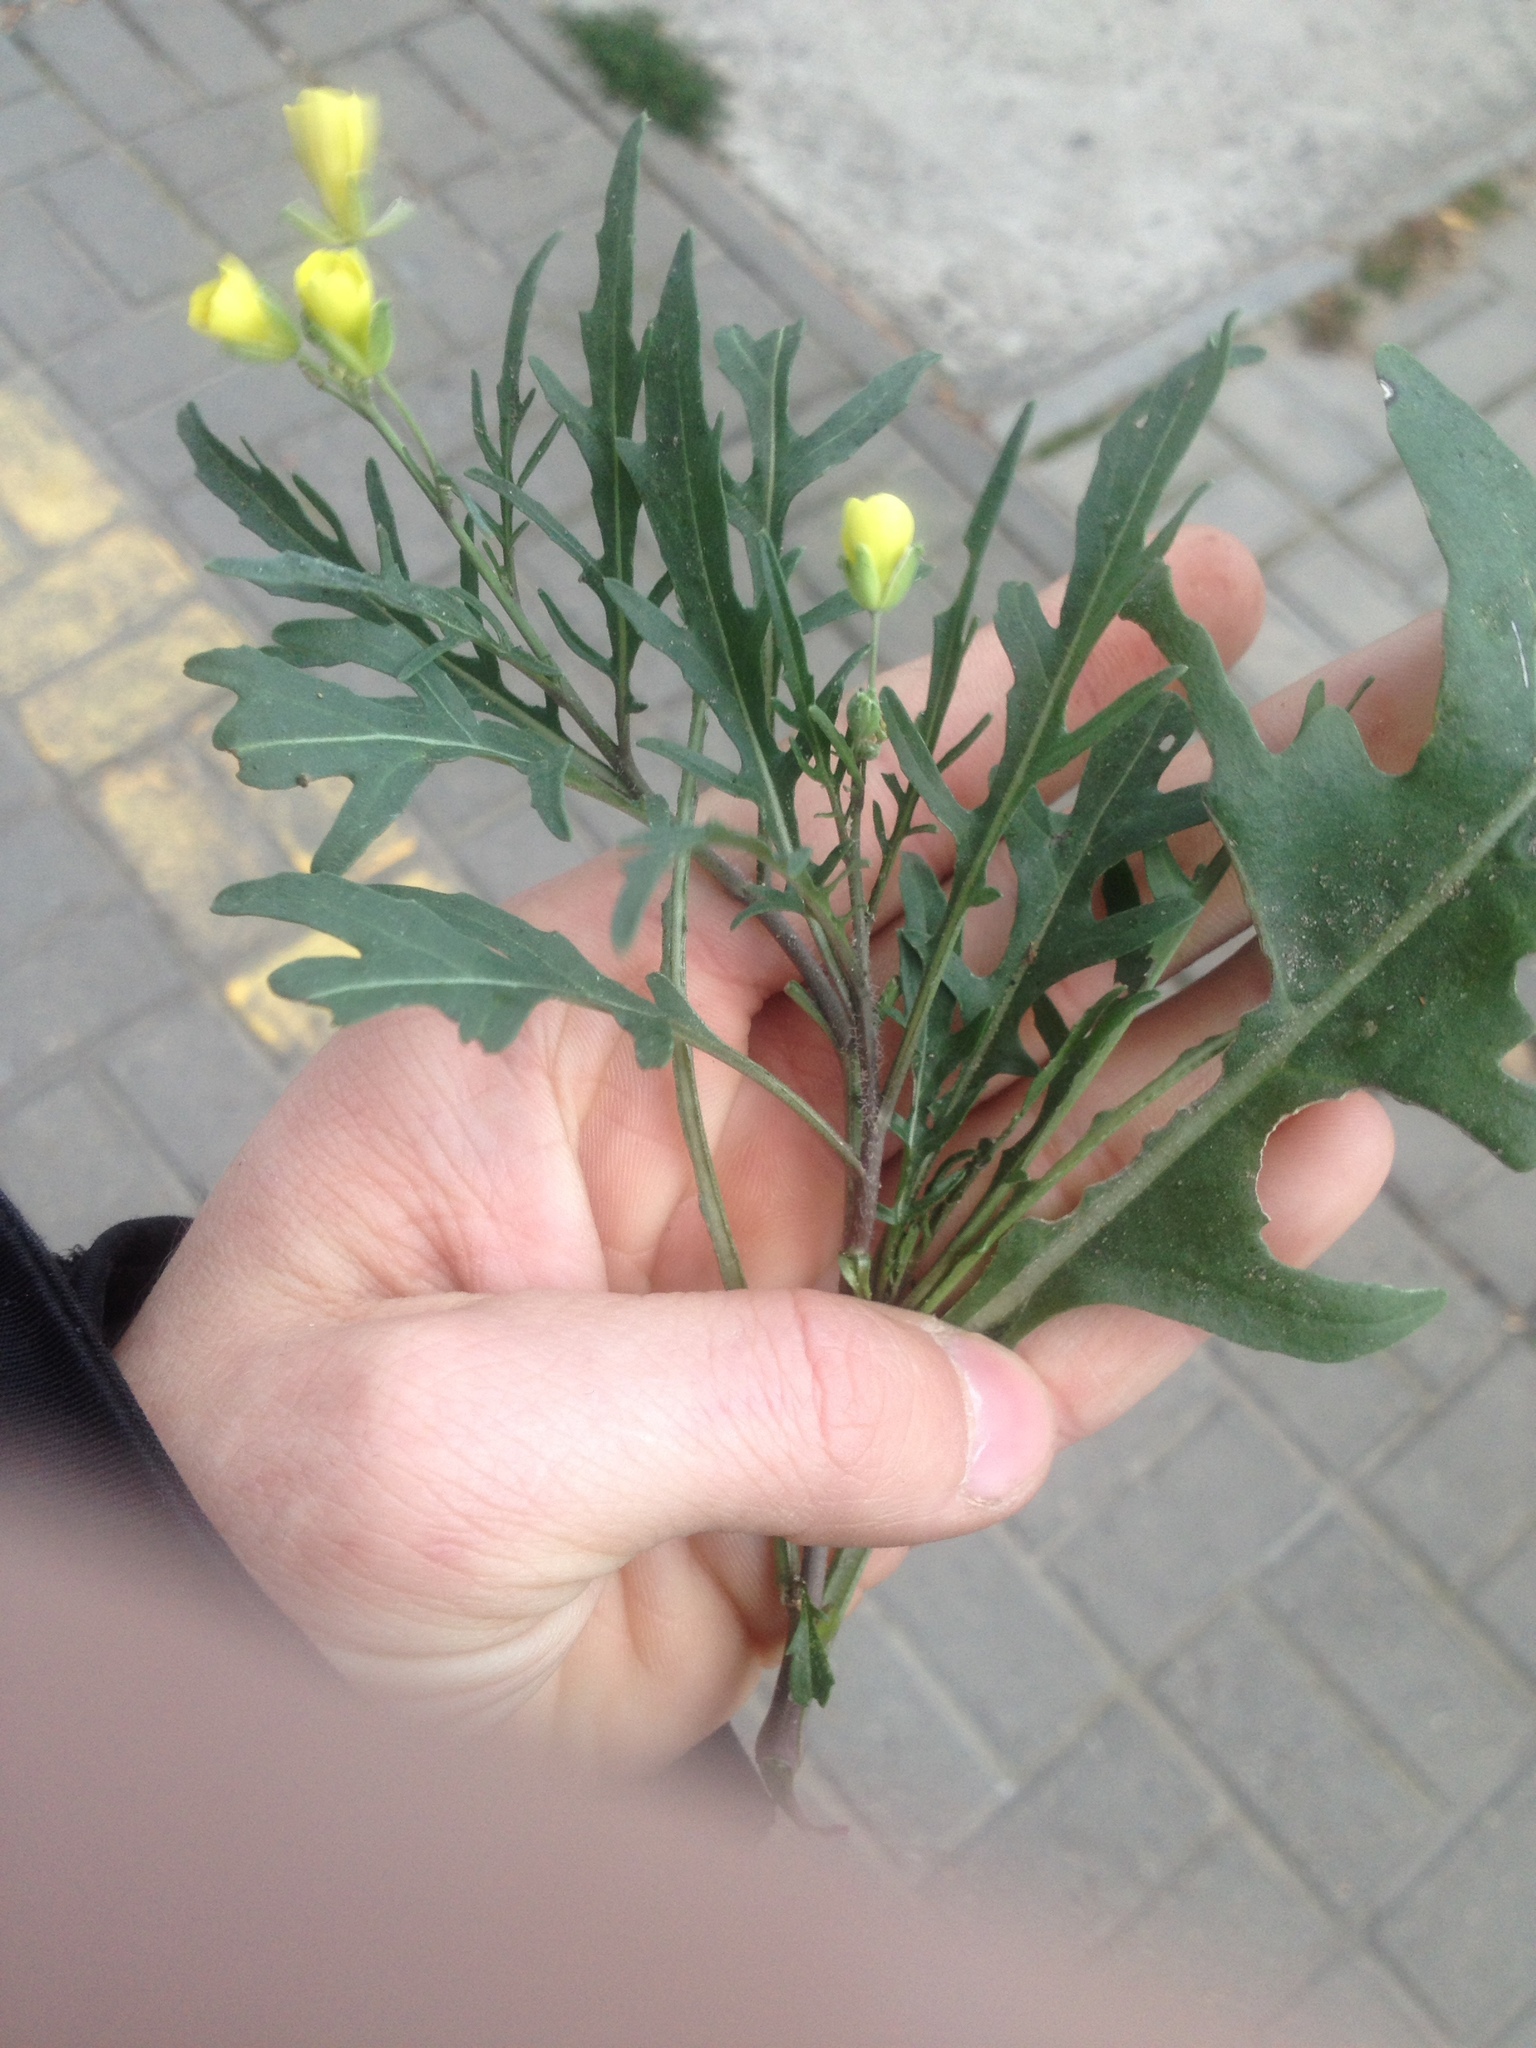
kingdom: Plantae
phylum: Tracheophyta
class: Magnoliopsida
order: Brassicales
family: Brassicaceae
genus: Diplotaxis
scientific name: Diplotaxis tenuifolia
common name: Perennial wall-rocket
